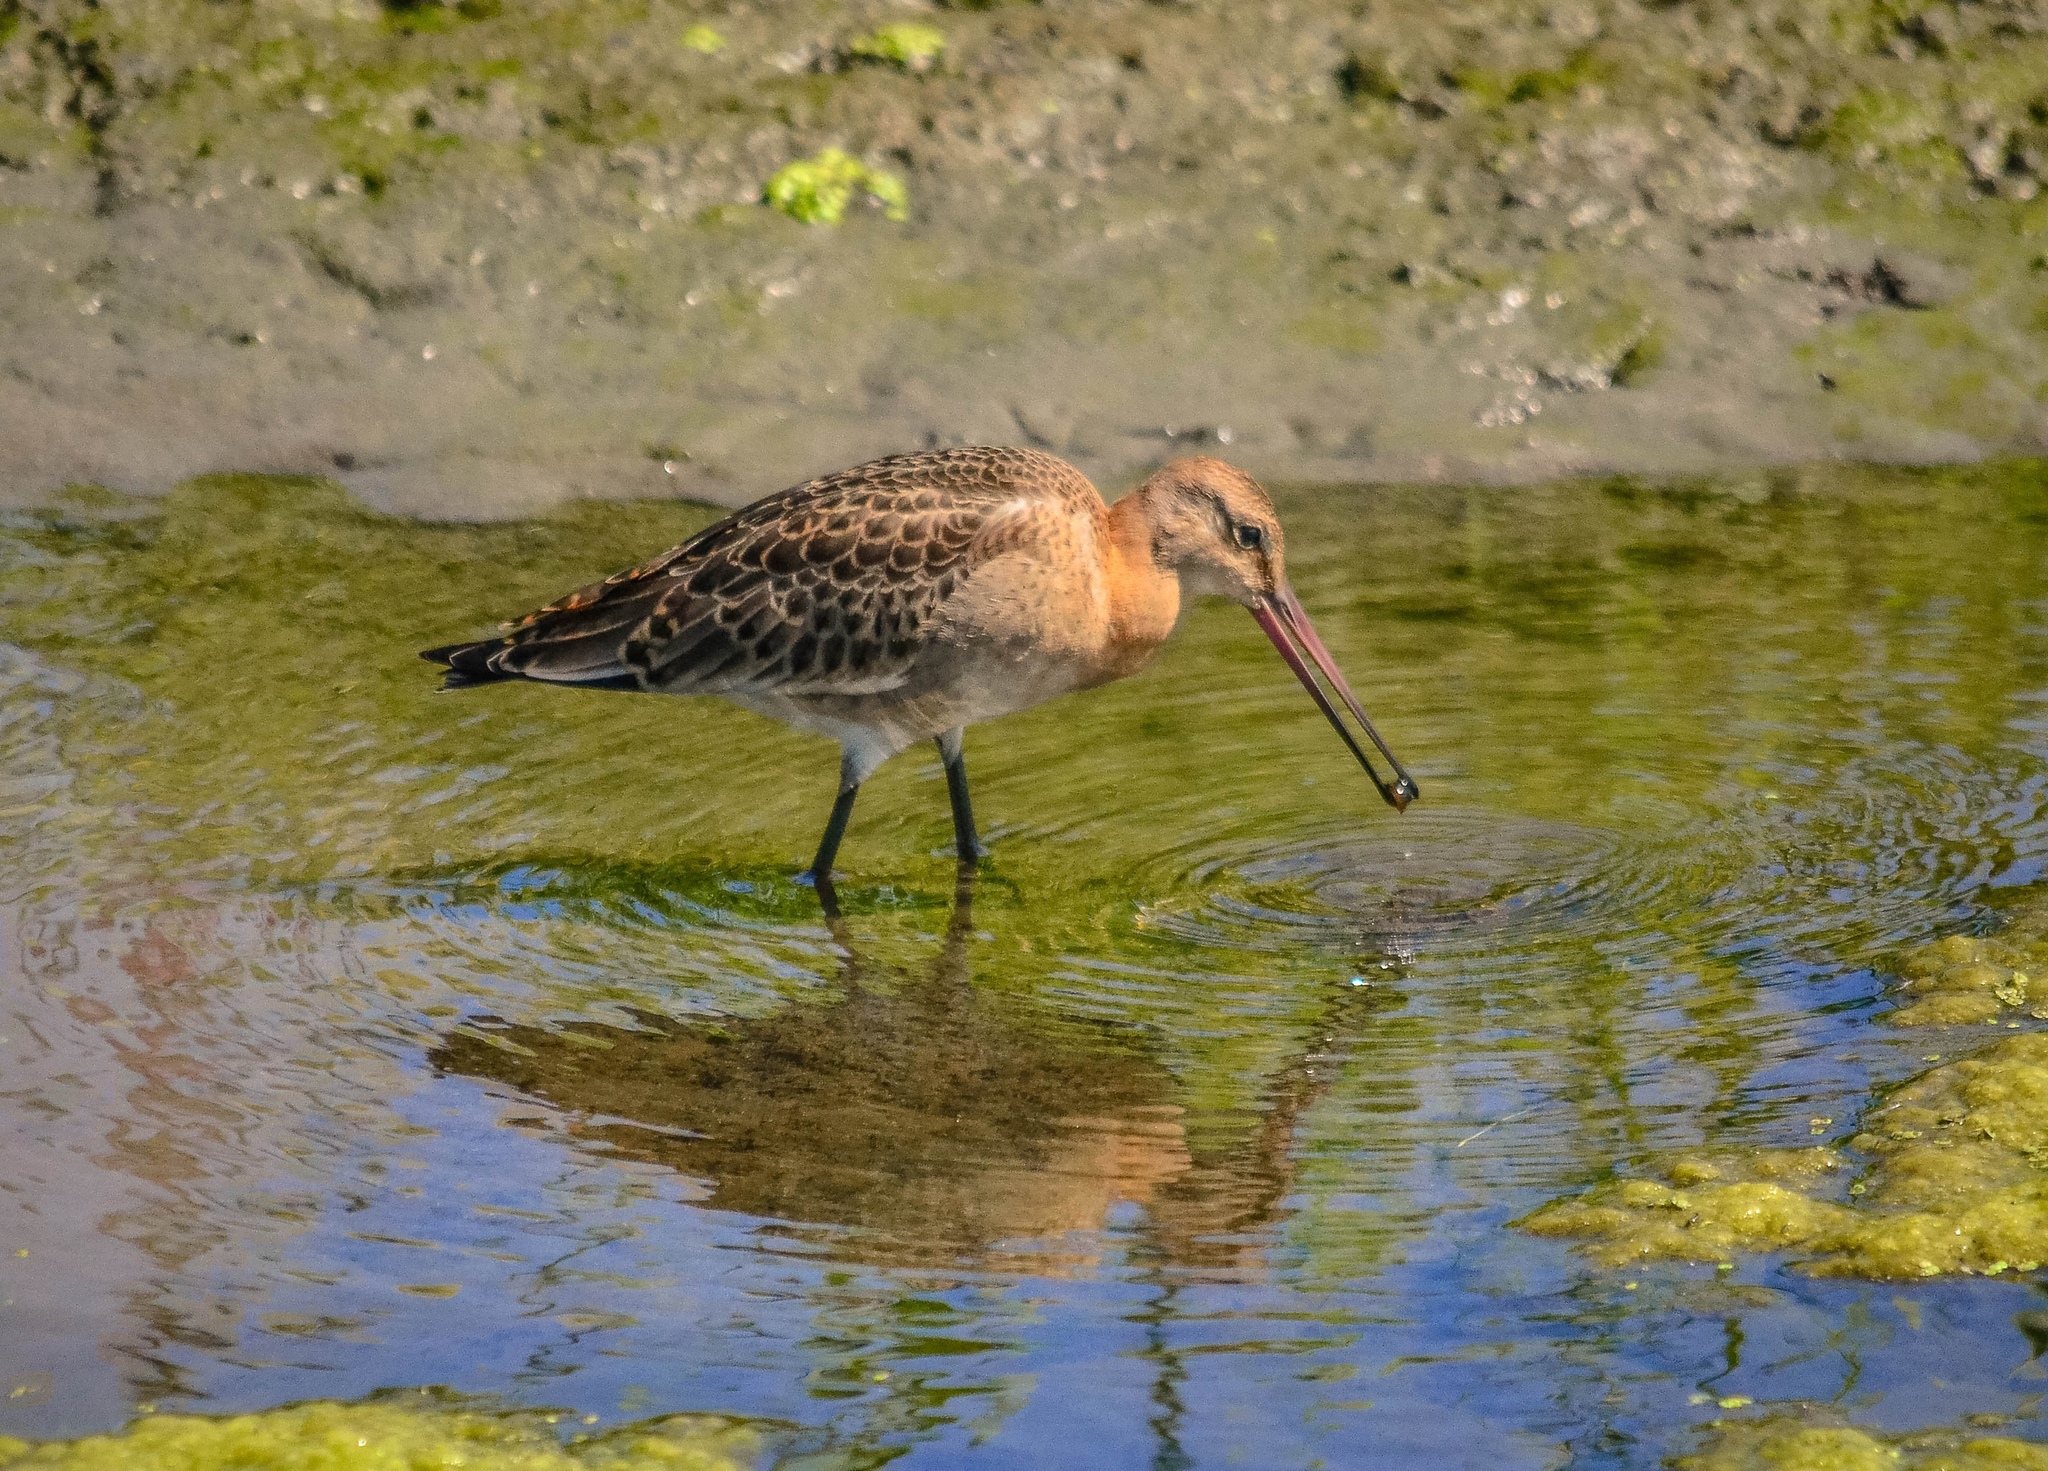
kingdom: Animalia
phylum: Chordata
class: Aves
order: Charadriiformes
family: Scolopacidae
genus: Limosa
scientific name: Limosa limosa
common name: Black-tailed godwit
